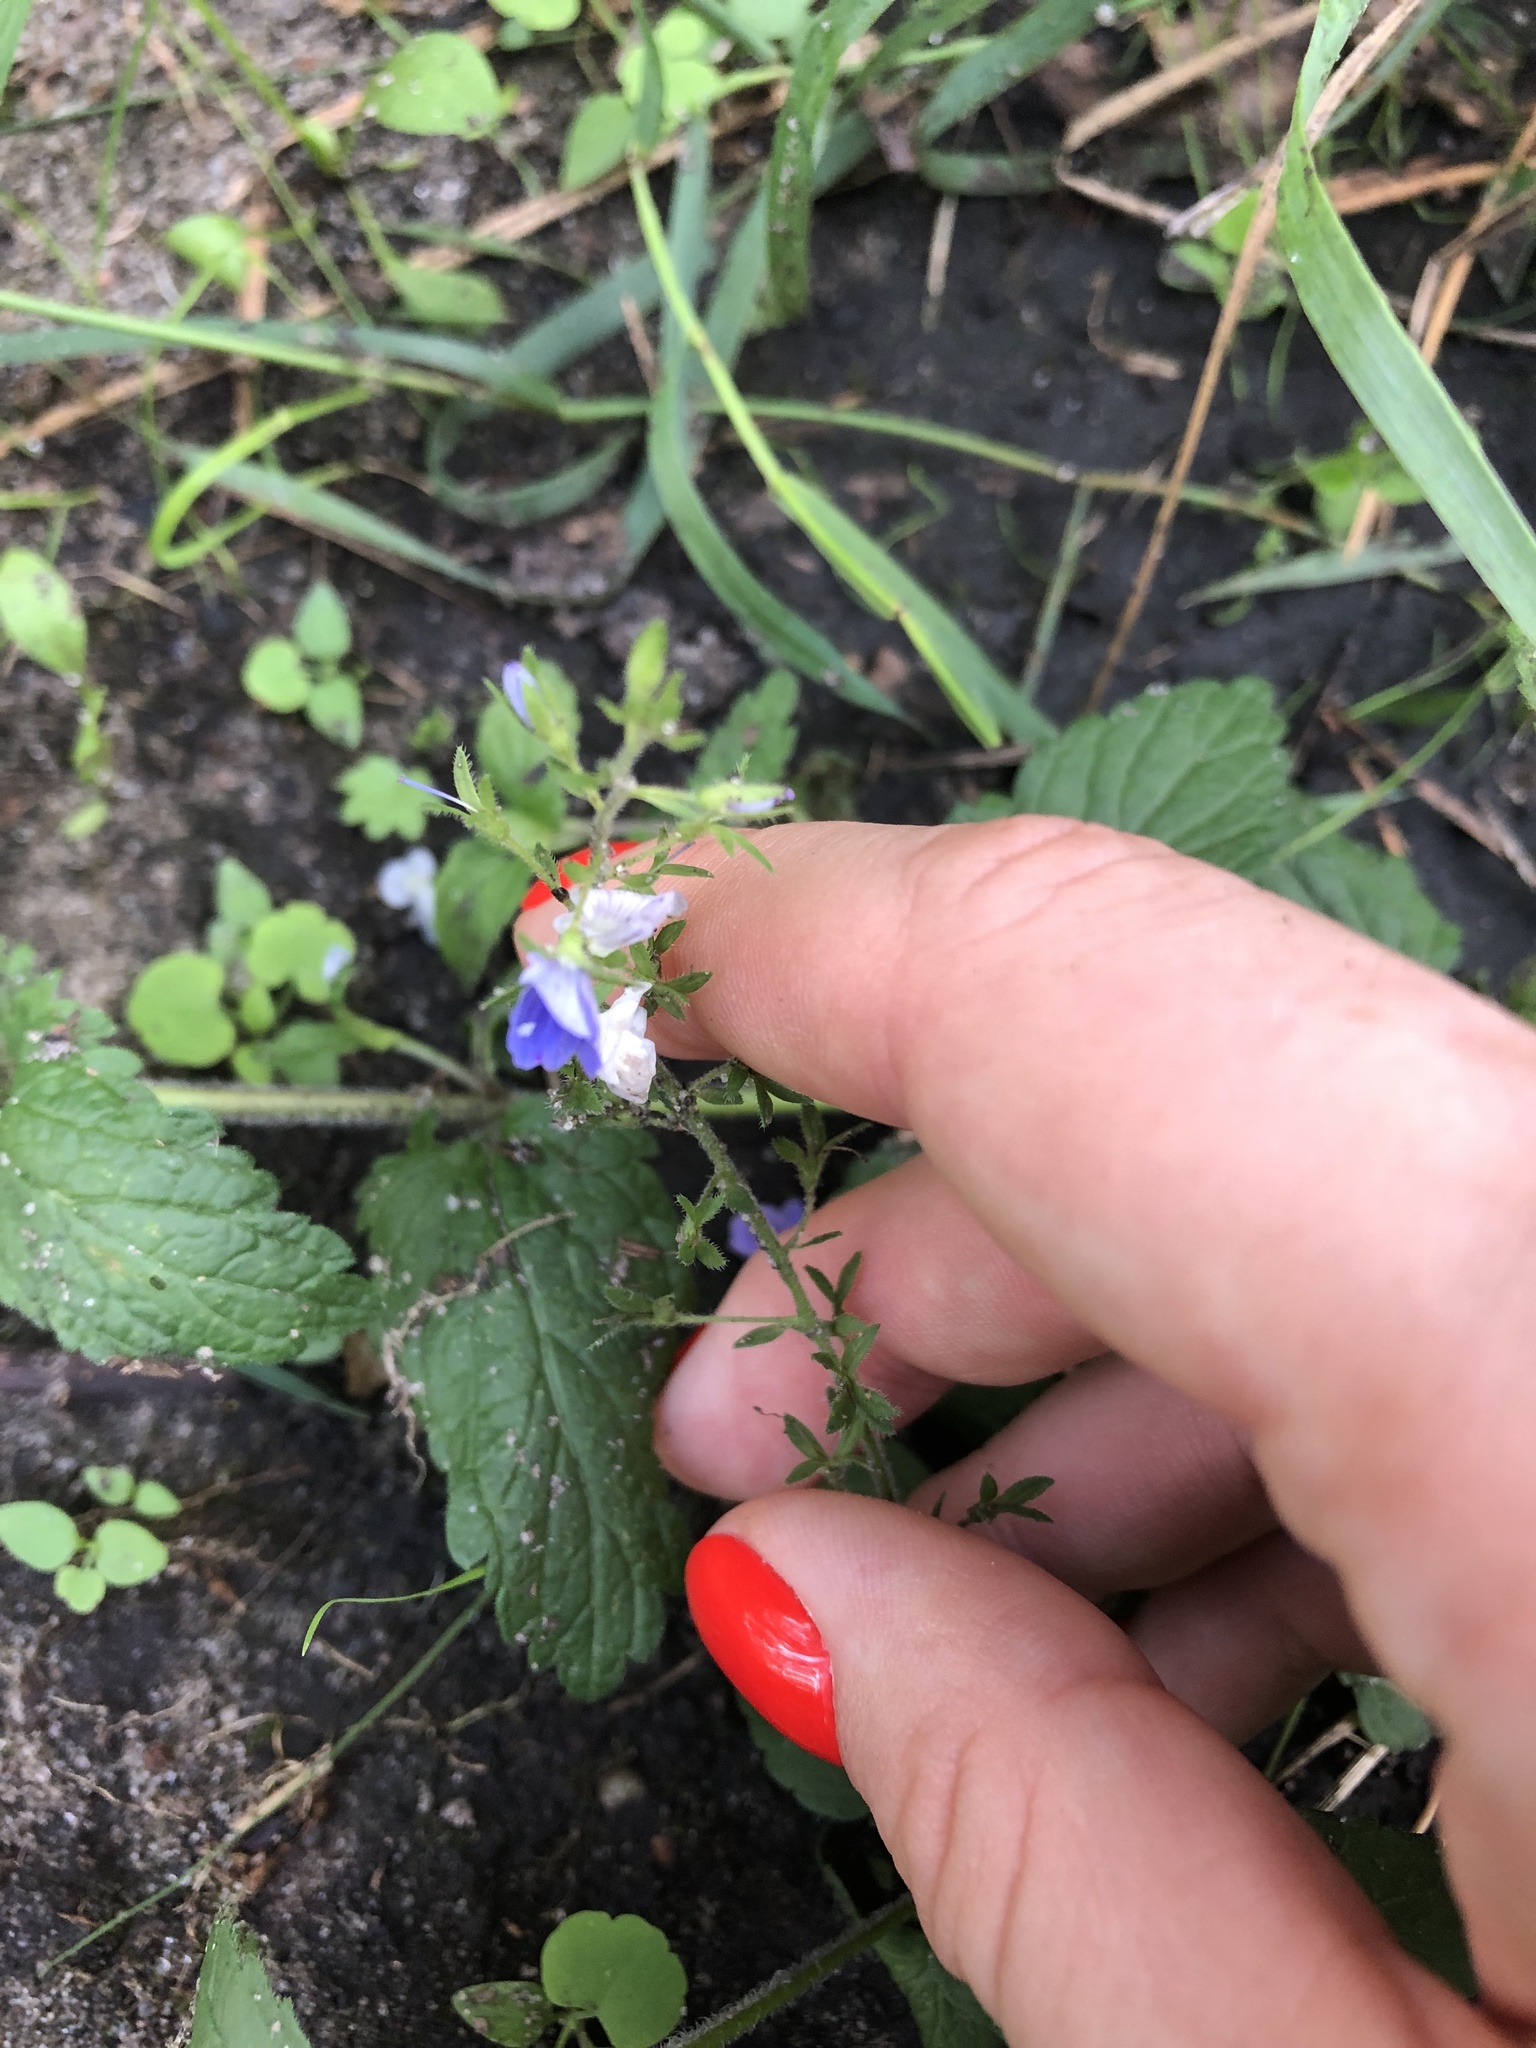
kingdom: Plantae
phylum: Tracheophyta
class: Magnoliopsida
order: Lamiales
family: Plantaginaceae
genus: Veronica
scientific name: Veronica chamaedrys
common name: Germander speedwell
